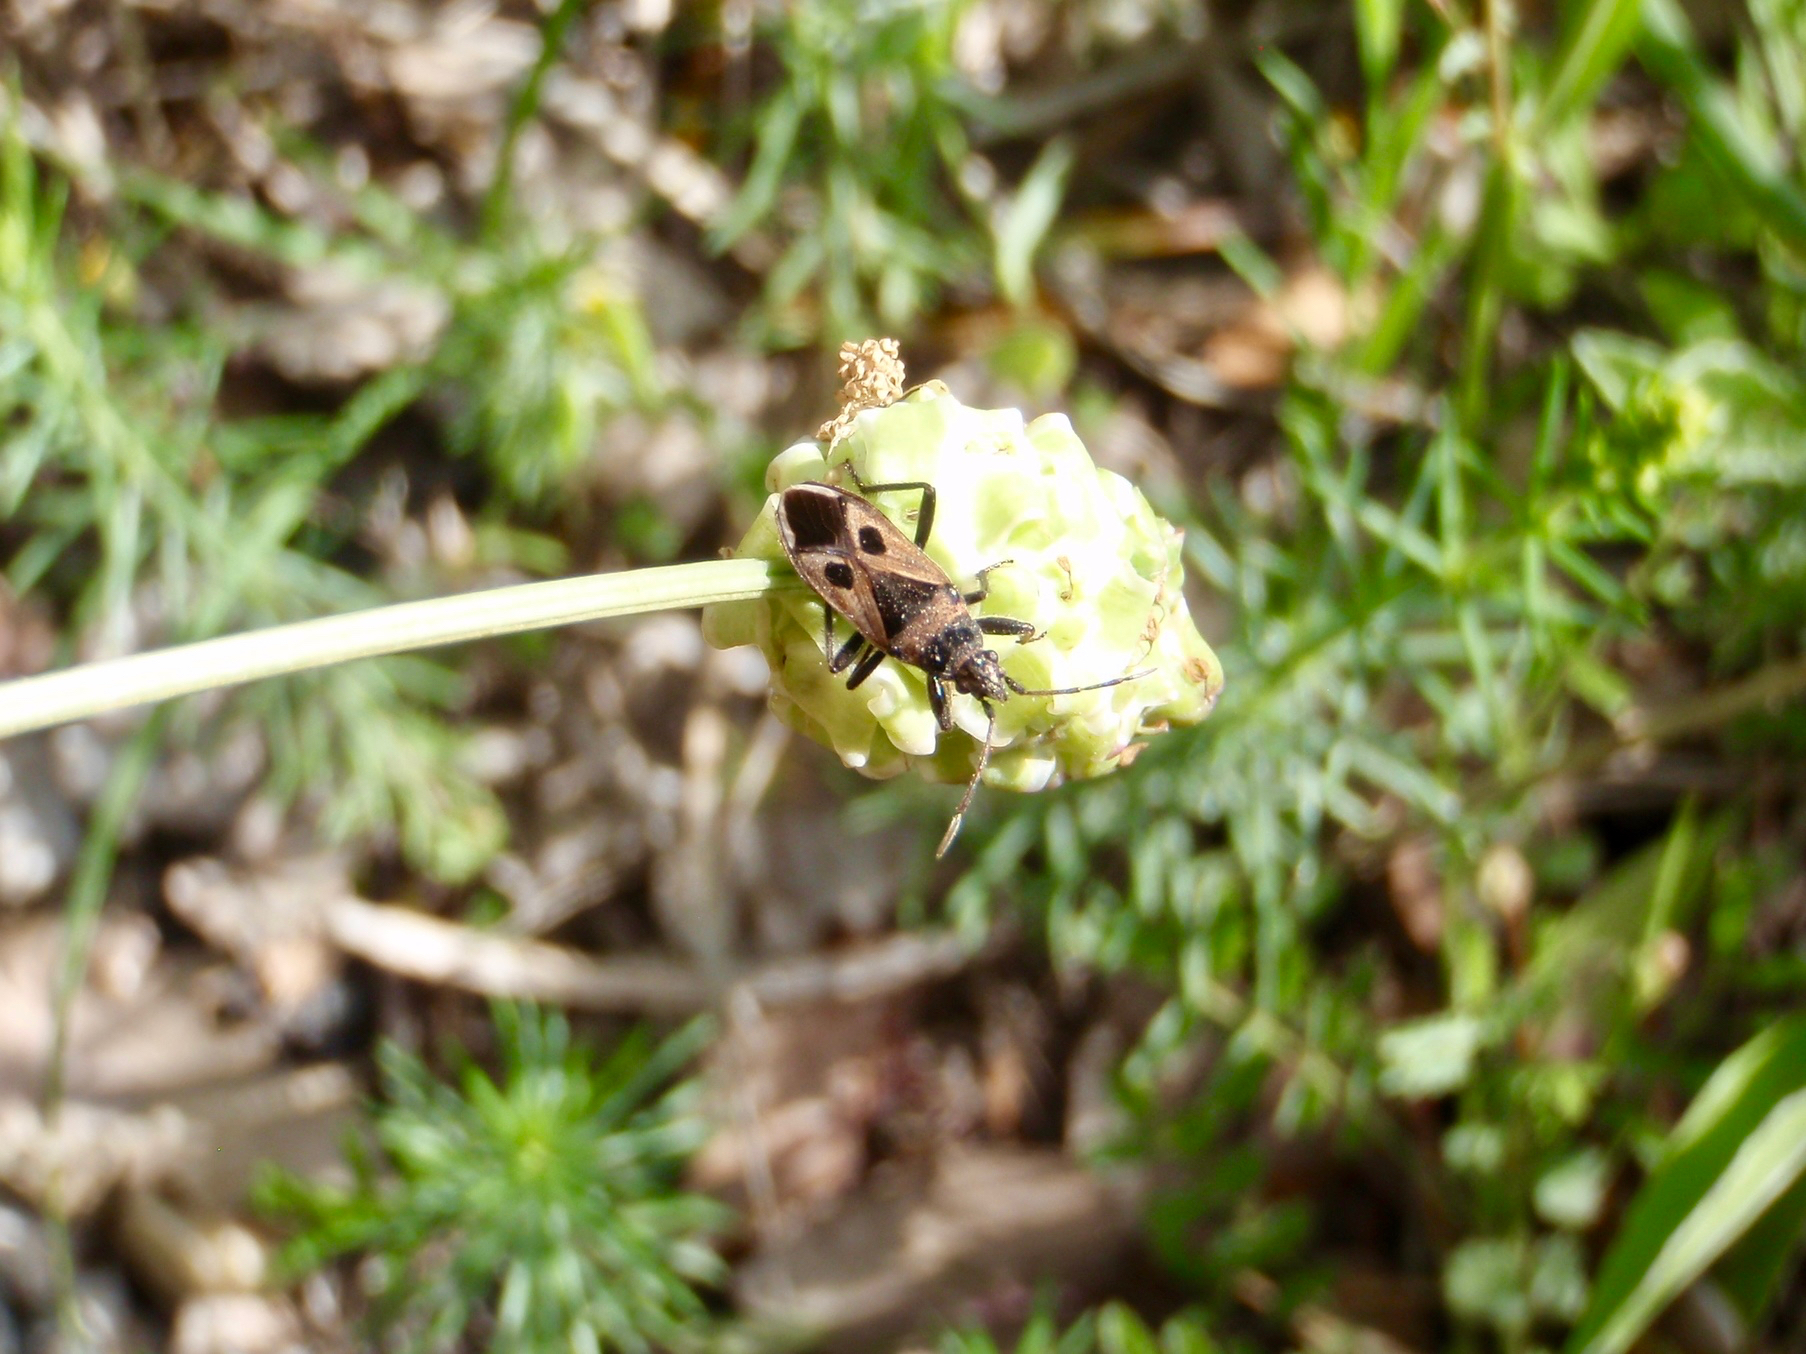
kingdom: Animalia
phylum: Arthropoda
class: Insecta
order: Hemiptera
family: Rhyparochromidae
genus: Lasiocoris
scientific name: Lasiocoris anomalus
